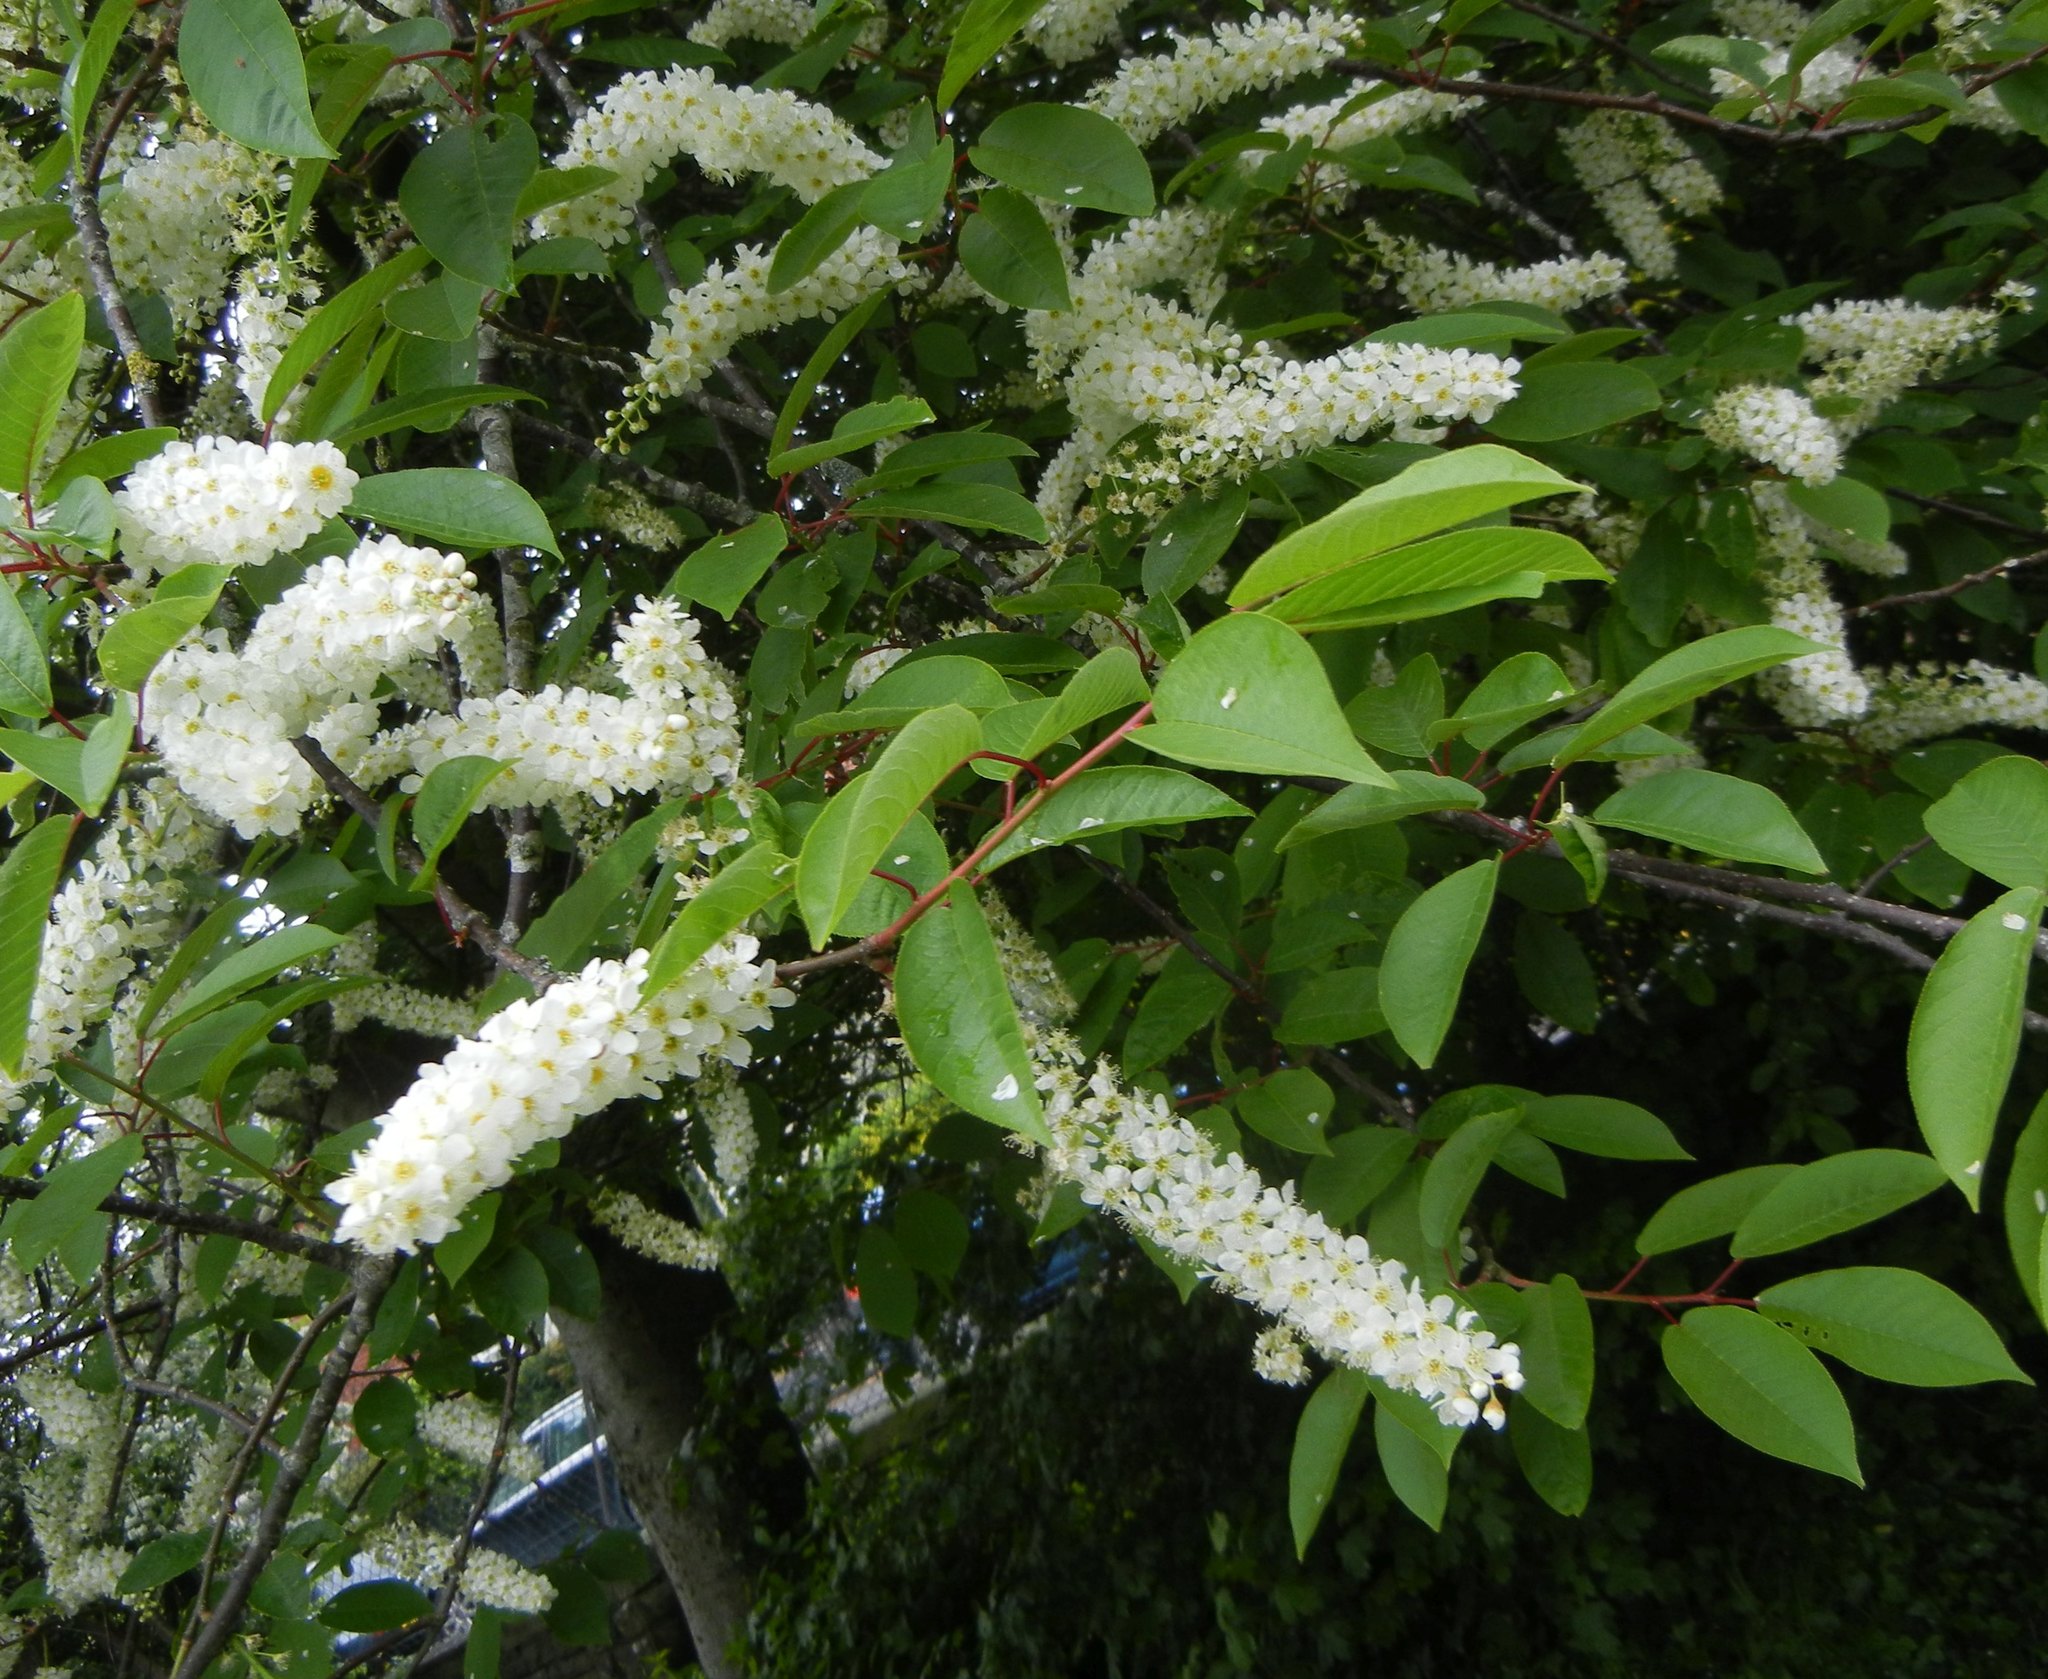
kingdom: Plantae
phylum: Tracheophyta
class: Magnoliopsida
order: Rosales
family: Rosaceae
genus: Prunus
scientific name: Prunus padus
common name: Bird cherry
